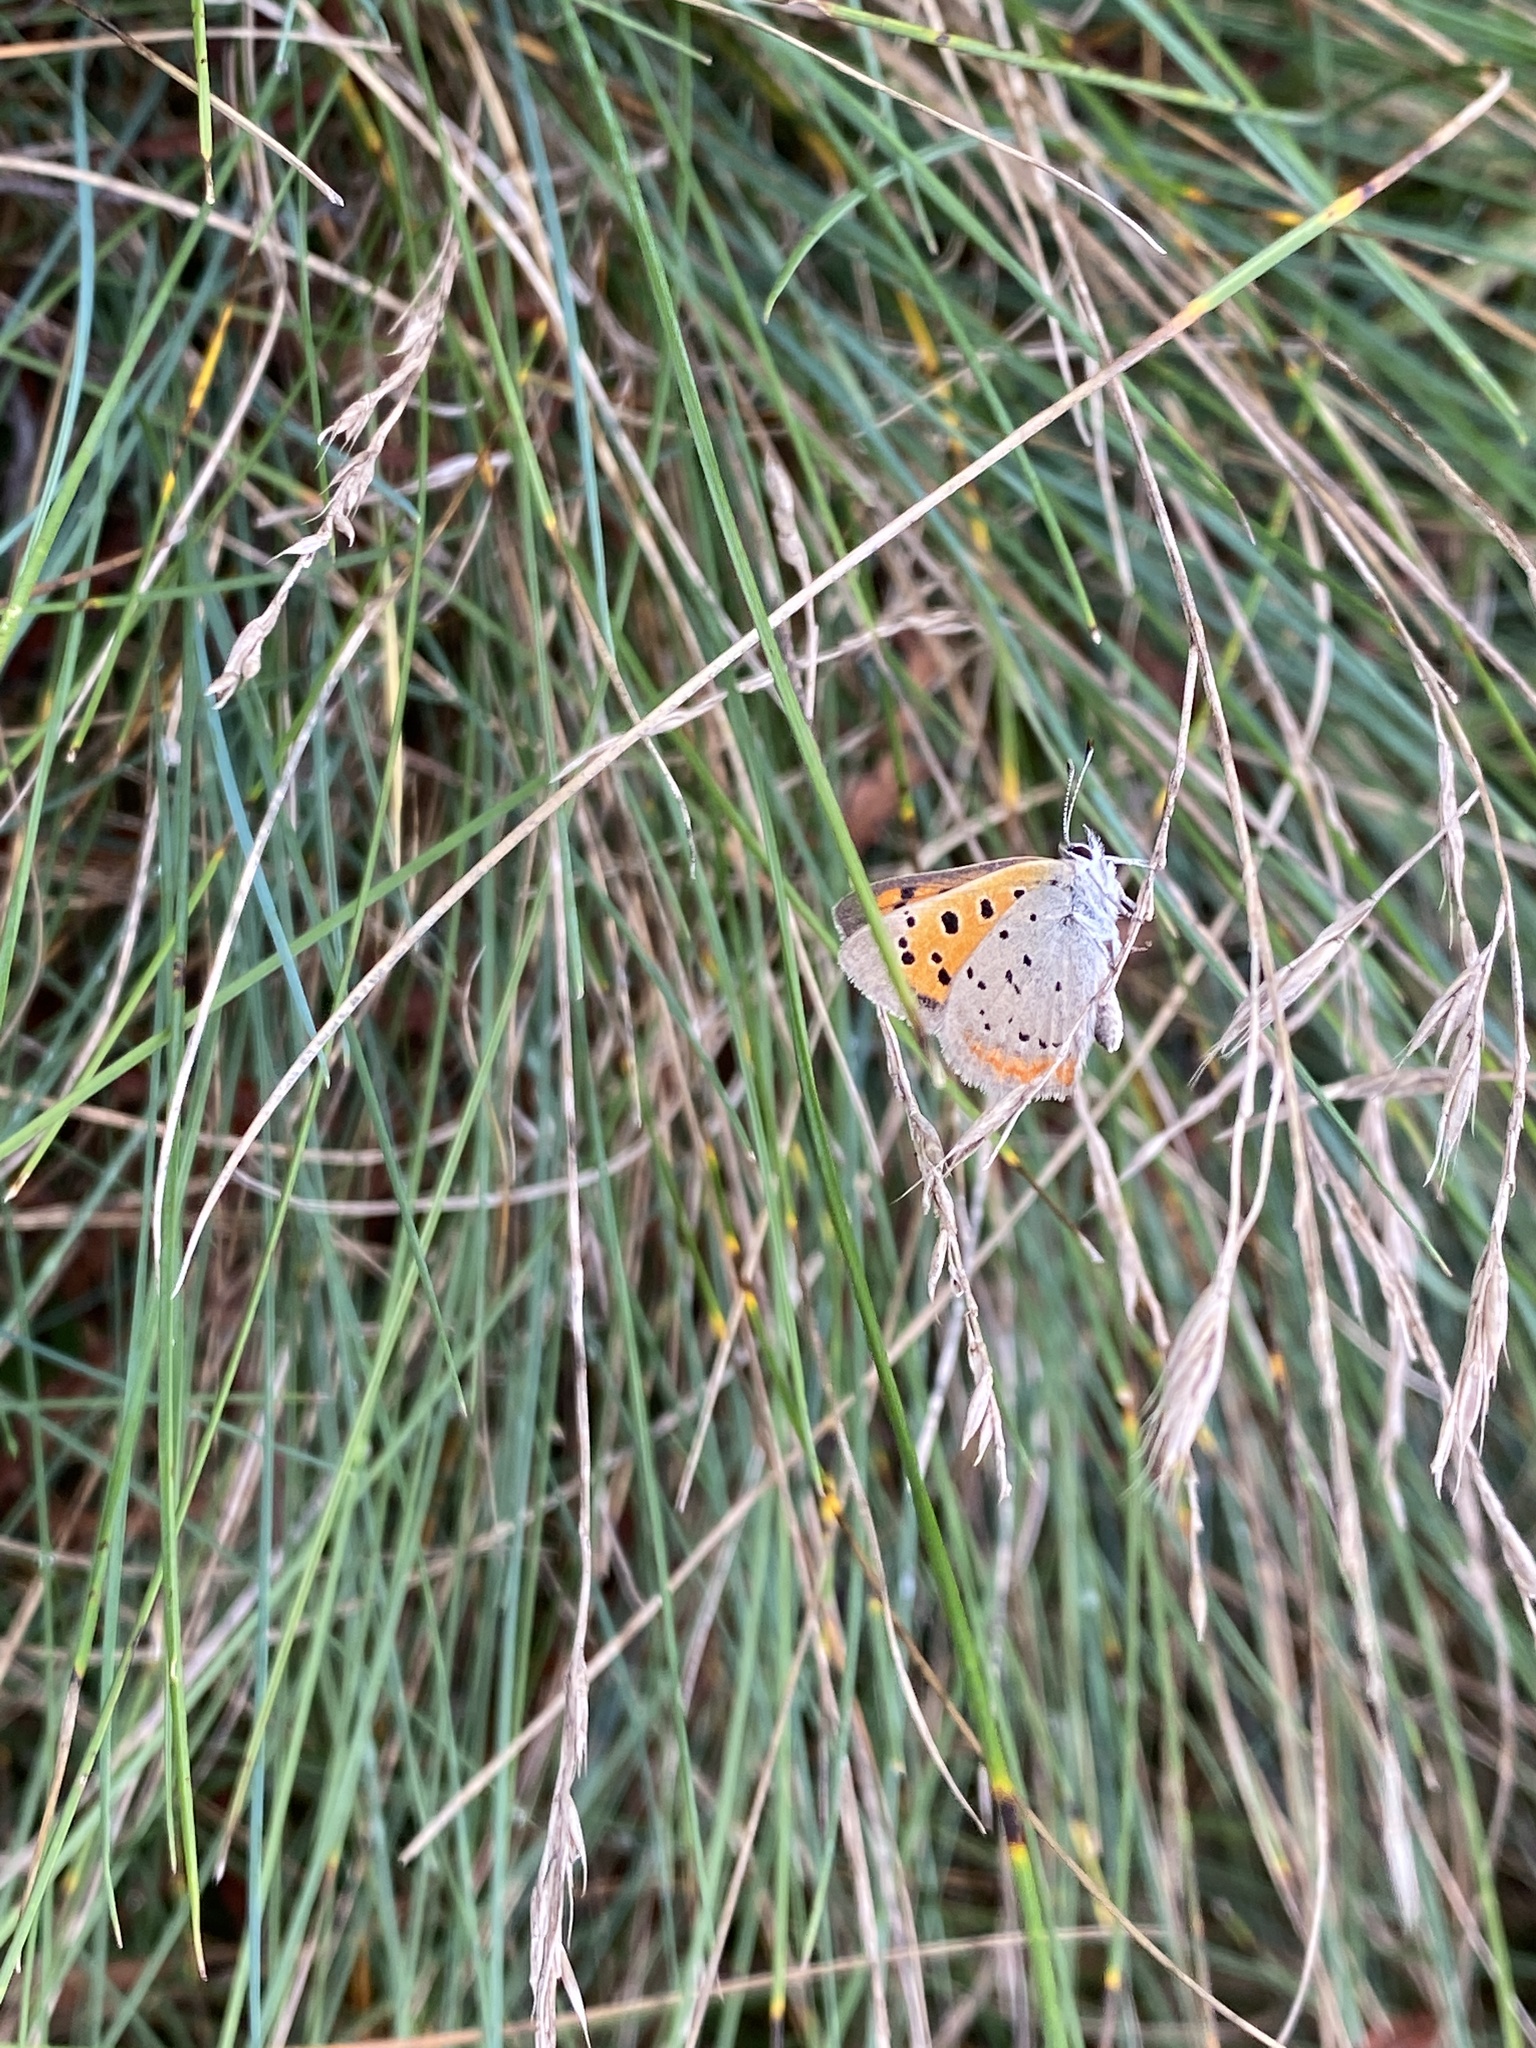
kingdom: Animalia
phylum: Arthropoda
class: Insecta
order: Lepidoptera
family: Lycaenidae
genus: Lycaena
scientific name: Lycaena hypophlaeas
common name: American copper
